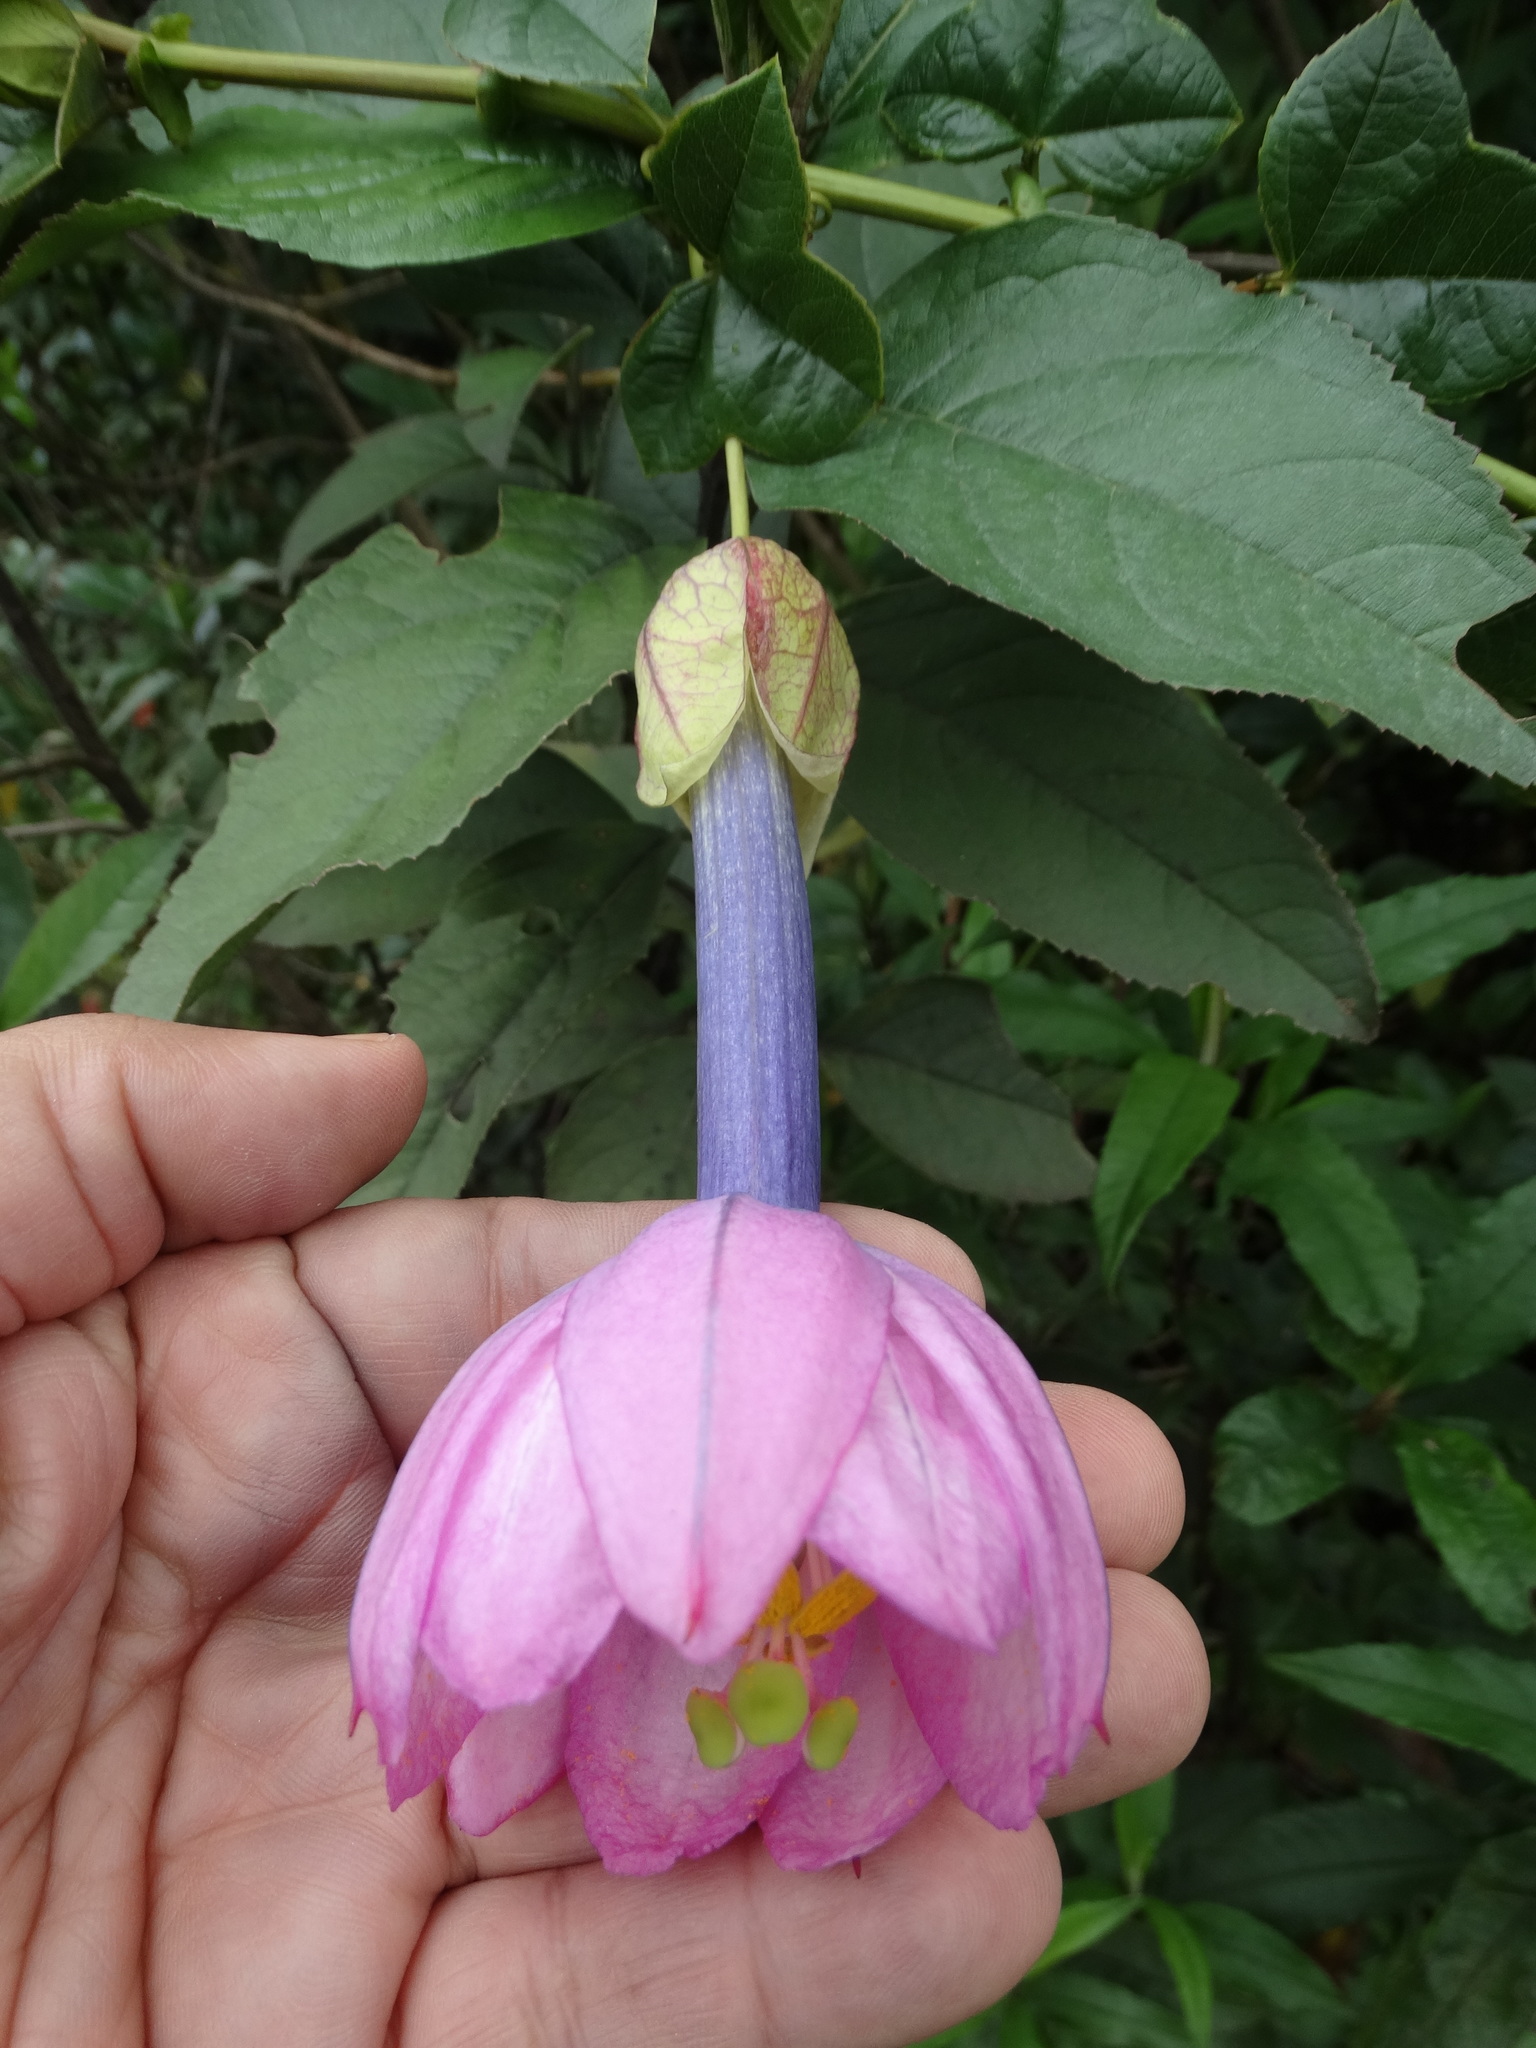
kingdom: Plantae
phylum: Tracheophyta
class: Magnoliopsida
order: Malpighiales
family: Passifloraceae
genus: Passiflora
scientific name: Passiflora cumbalensis
